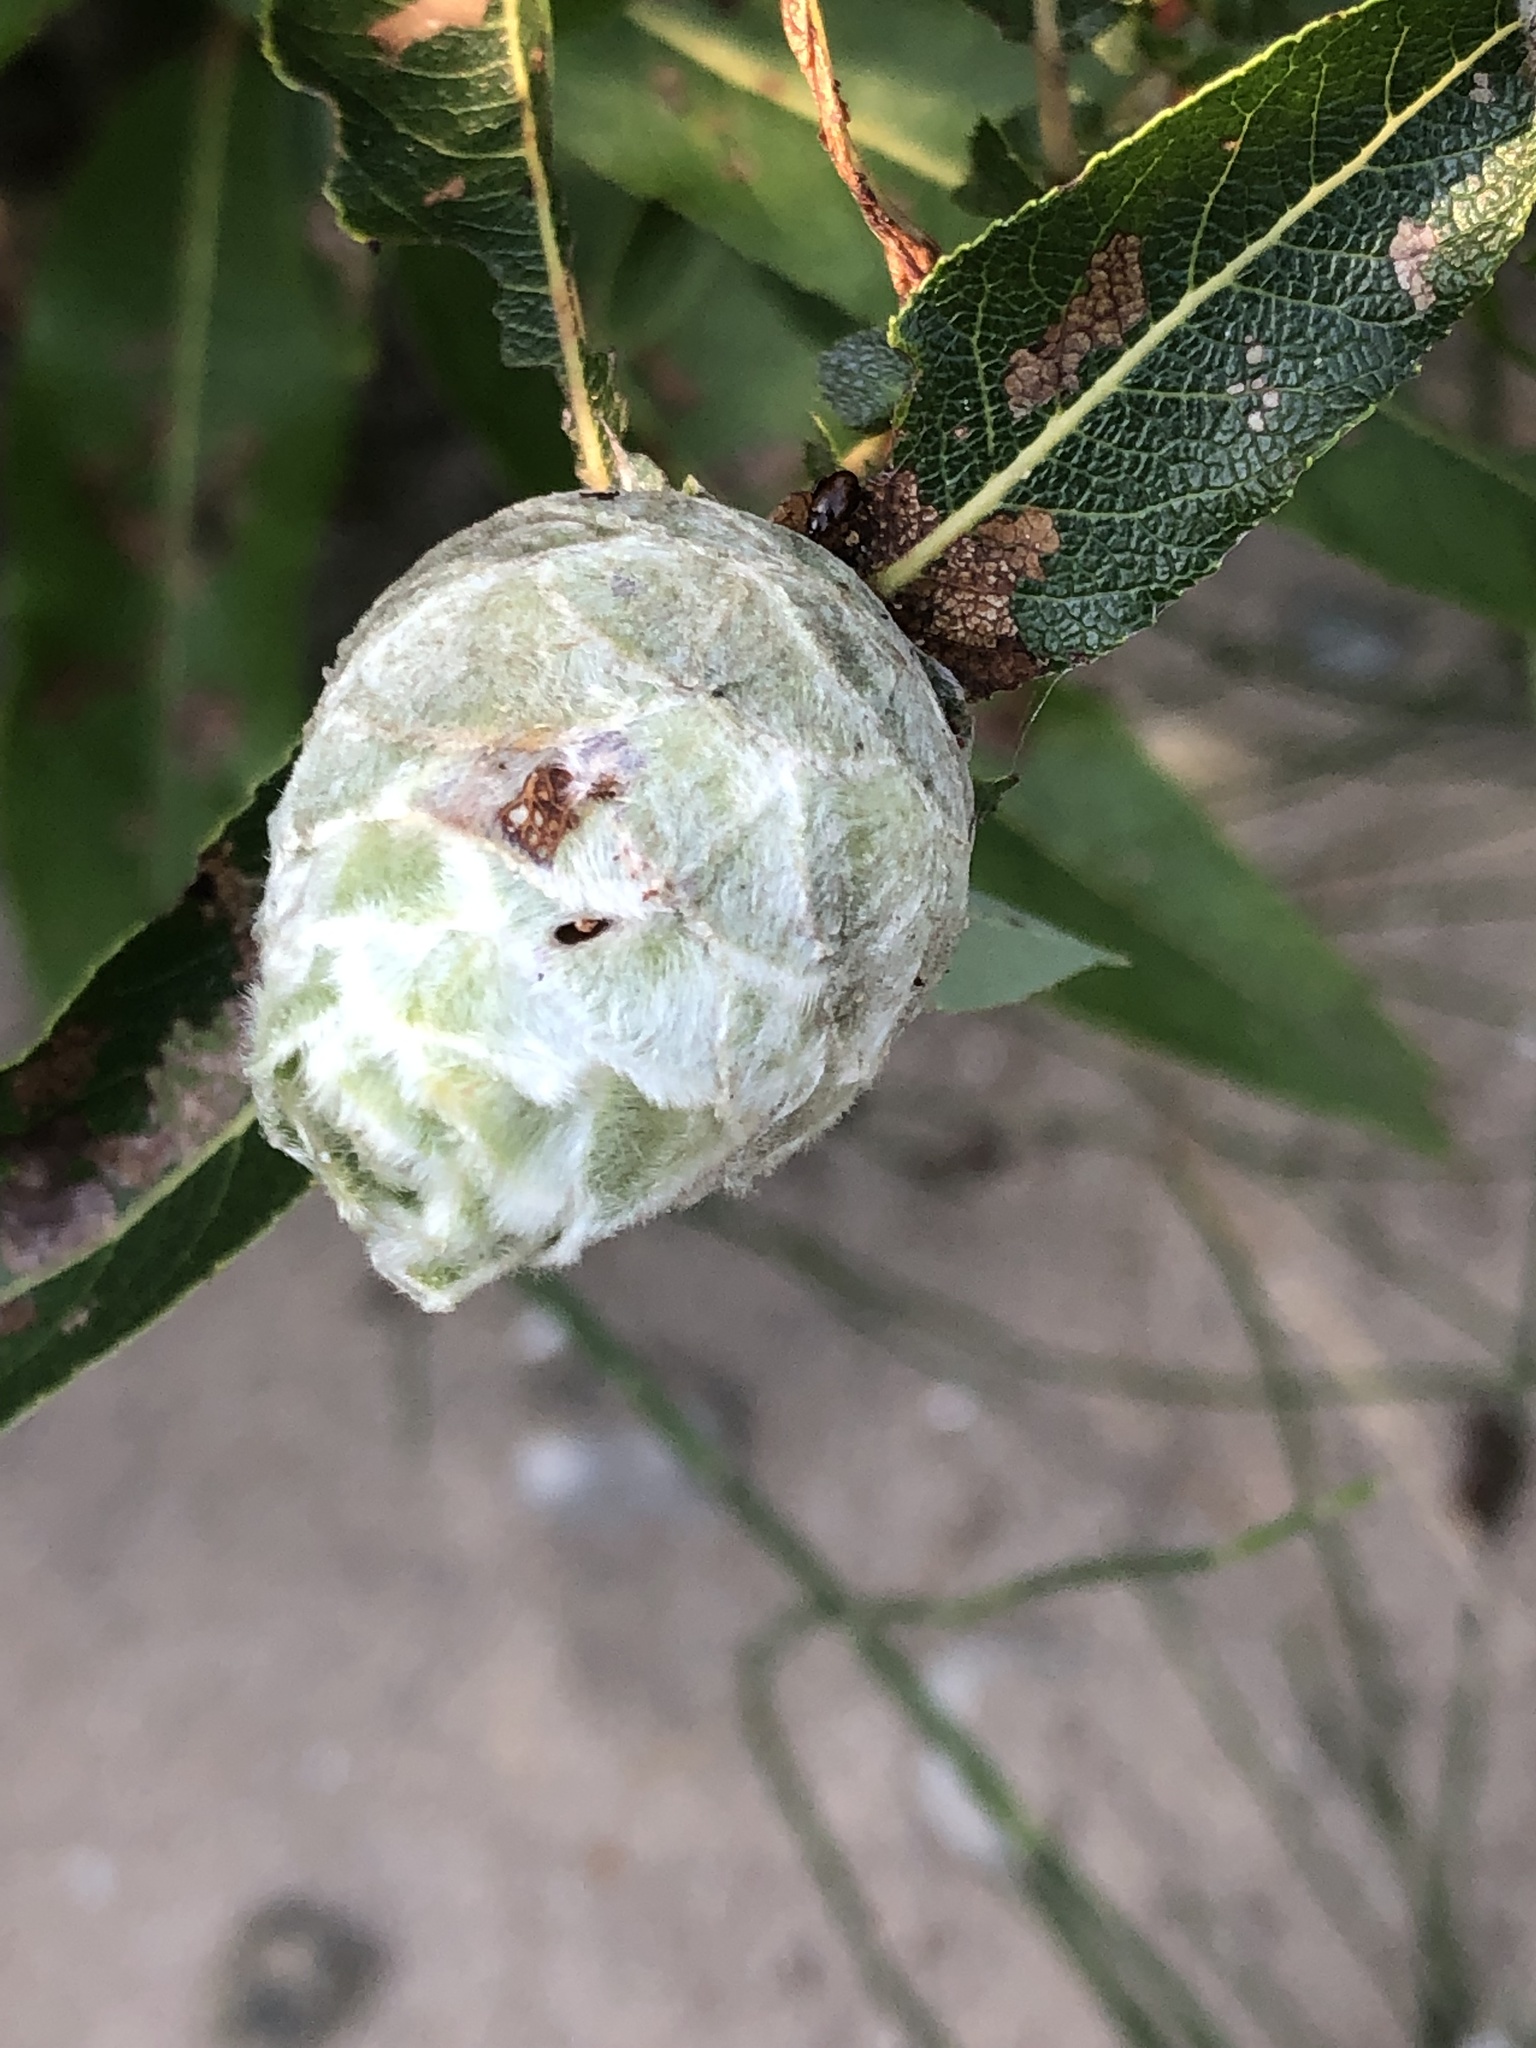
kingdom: Animalia
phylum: Arthropoda
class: Insecta
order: Diptera
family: Cecidomyiidae
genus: Rabdophaga
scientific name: Rabdophaga strobiloides
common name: Willow pinecone gall midge
